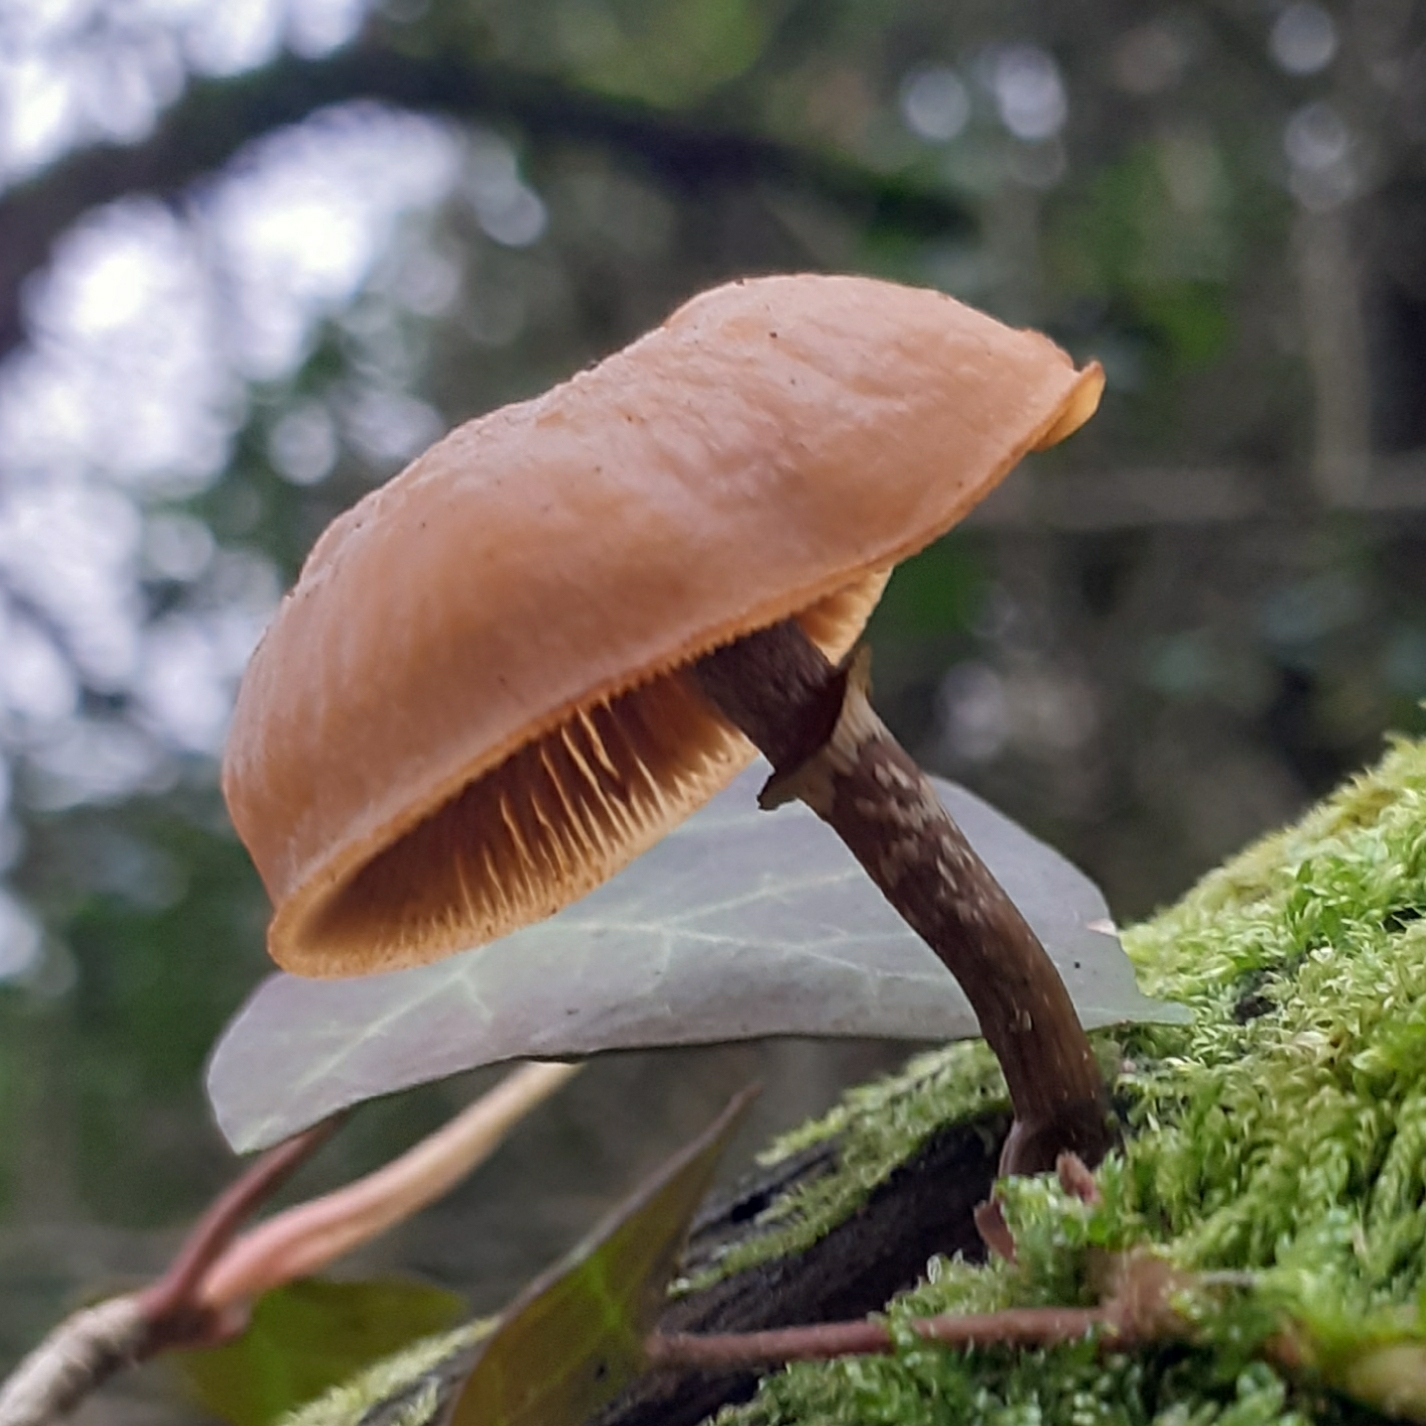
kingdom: Fungi
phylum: Basidiomycota
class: Agaricomycetes
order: Agaricales
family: Hymenogastraceae
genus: Galerina
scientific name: Galerina marginata
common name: Funeral bell
